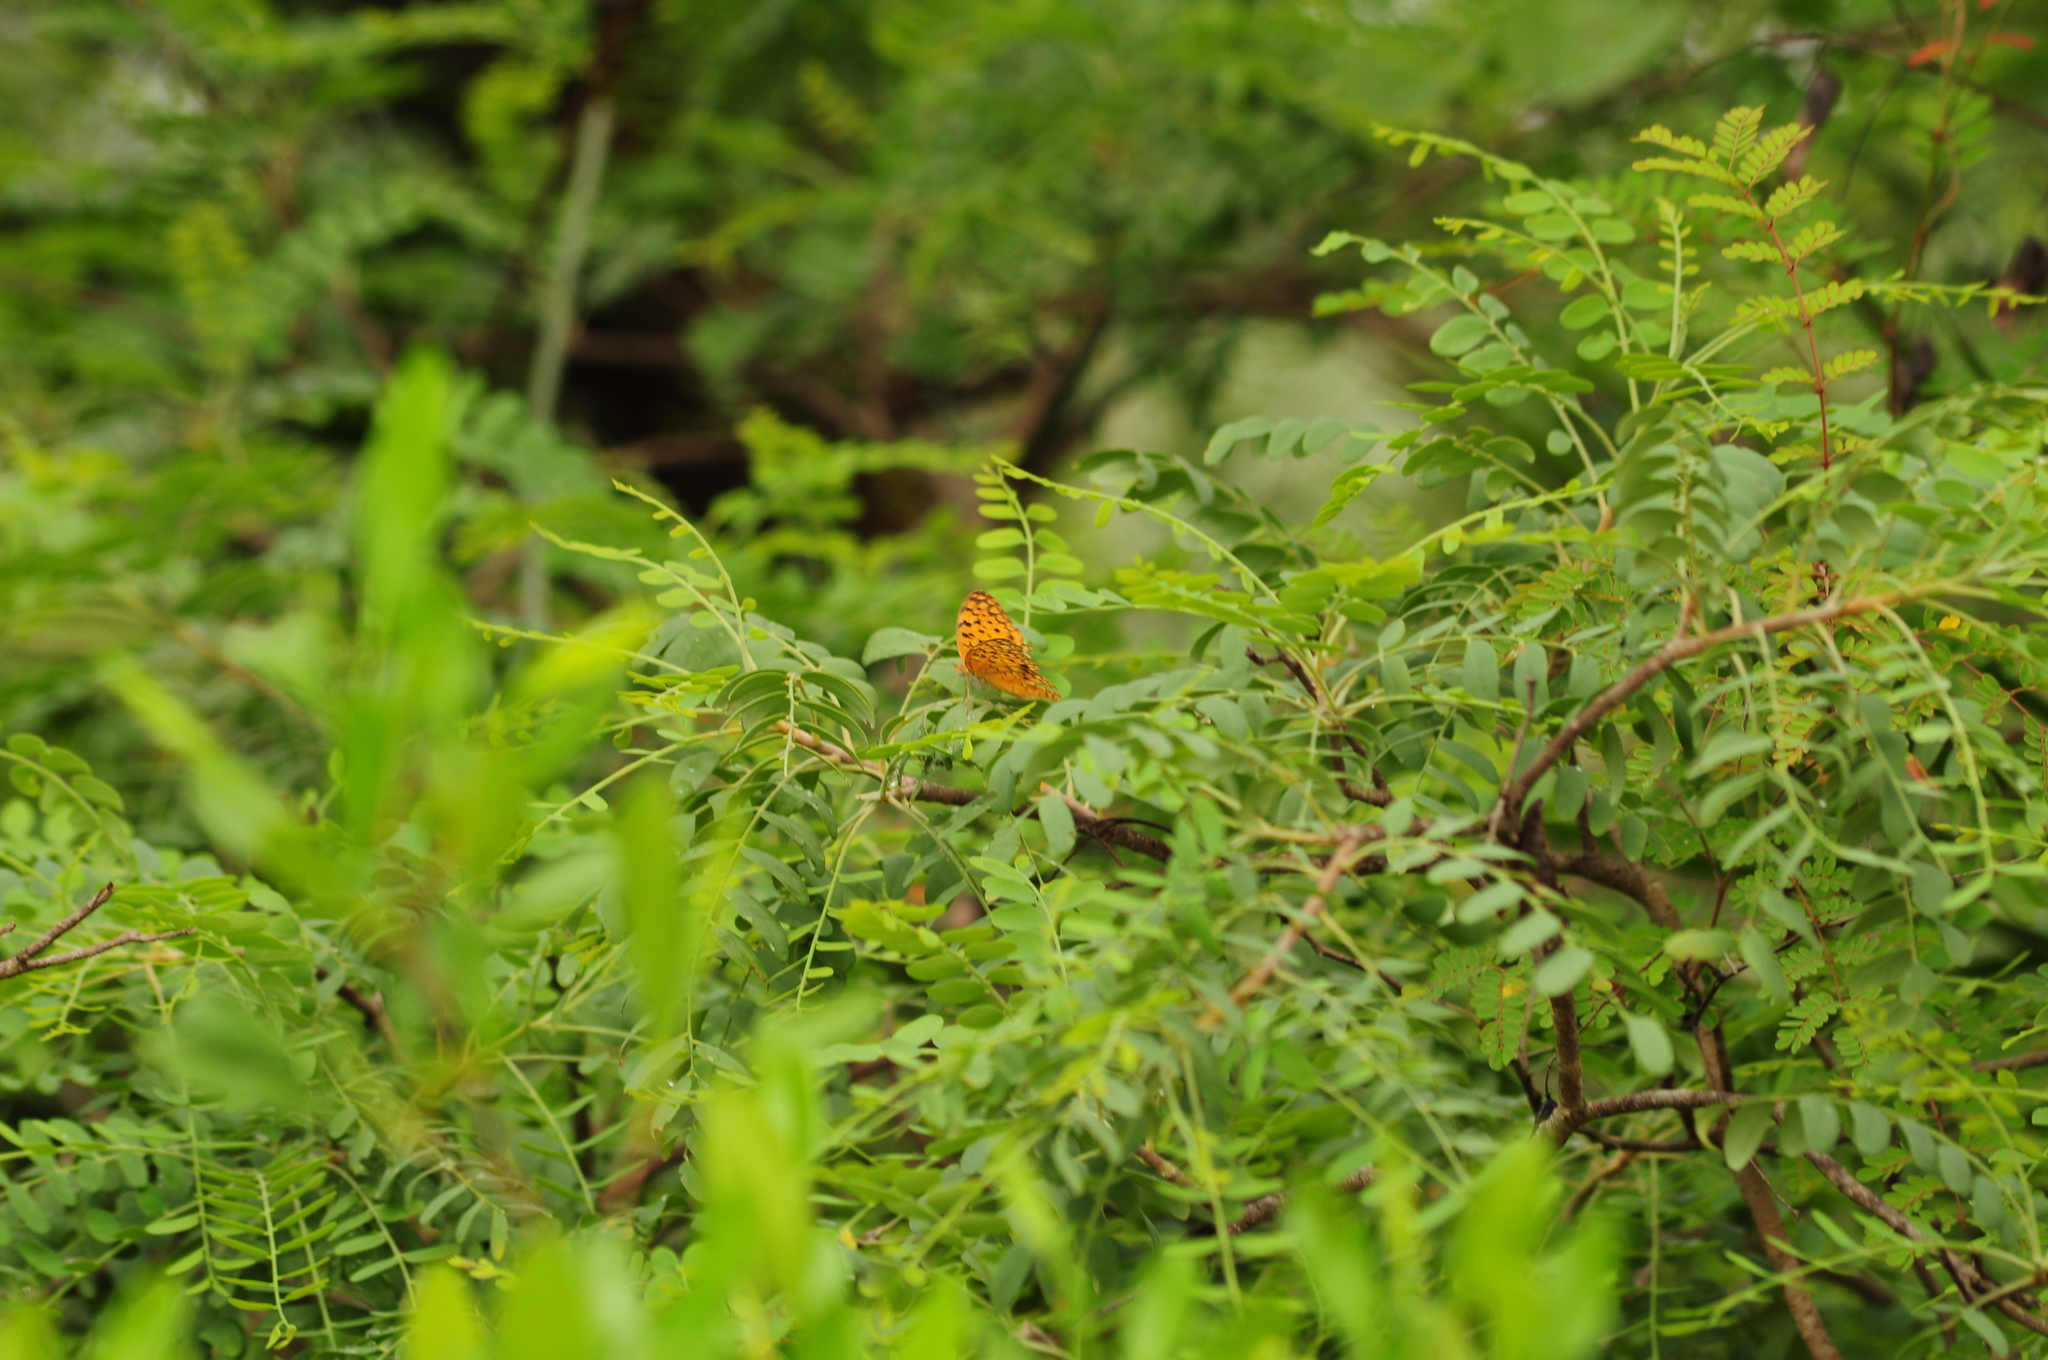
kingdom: Animalia
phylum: Arthropoda
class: Insecta
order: Lepidoptera
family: Nymphalidae
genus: Phalanta
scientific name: Phalanta phalantha
